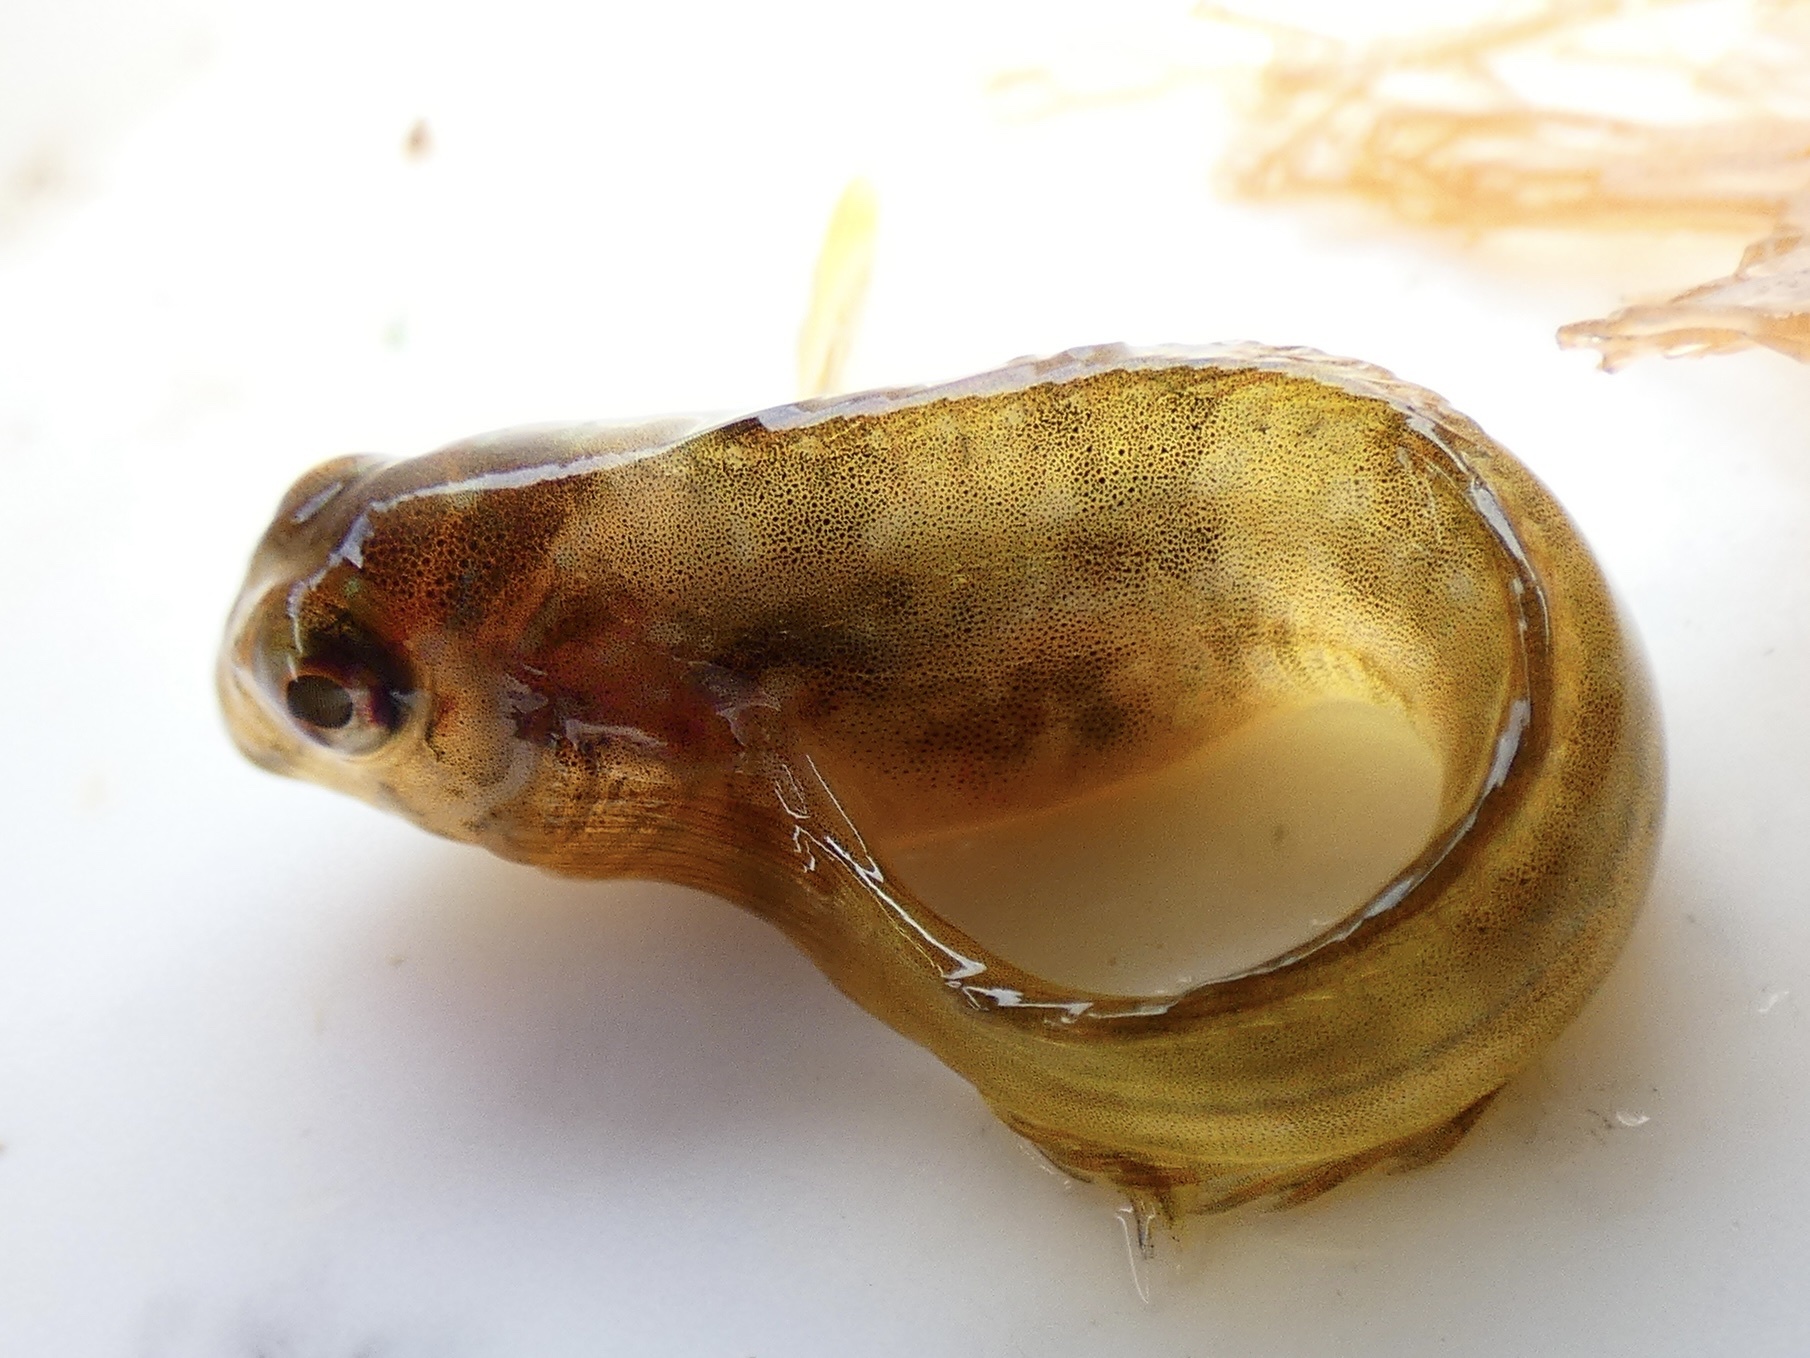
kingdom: Animalia
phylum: Chordata
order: Perciformes
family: Blenniidae
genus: Lipophrys
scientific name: Lipophrys pholis
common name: Shanny
